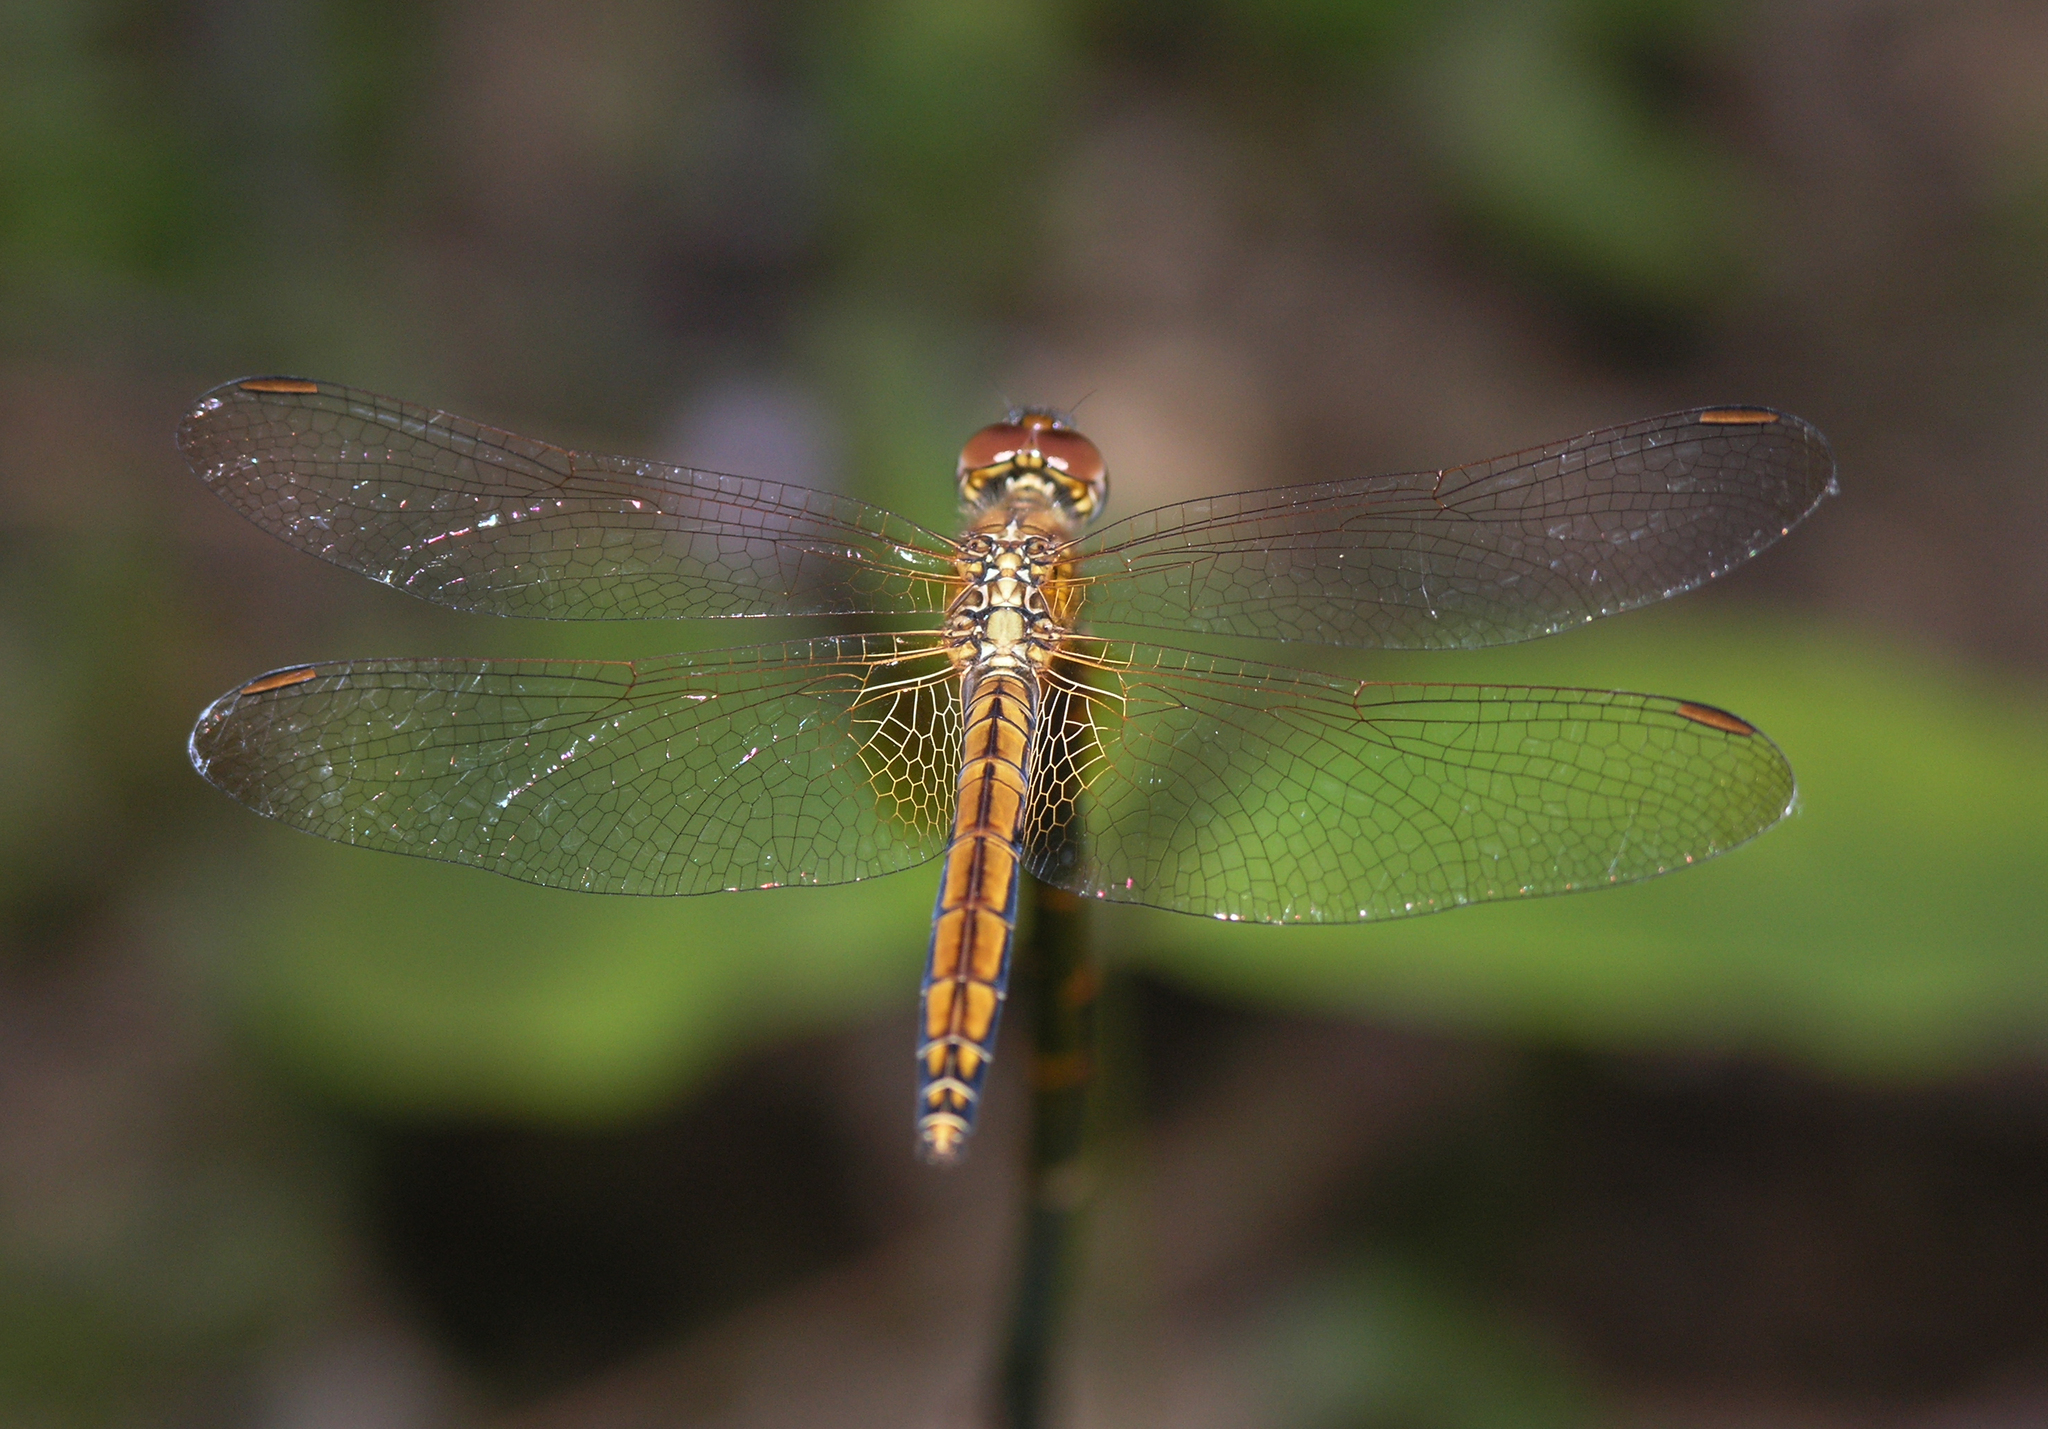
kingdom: Animalia
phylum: Arthropoda
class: Insecta
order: Odonata
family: Libellulidae
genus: Trithemis
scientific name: Trithemis aurora
